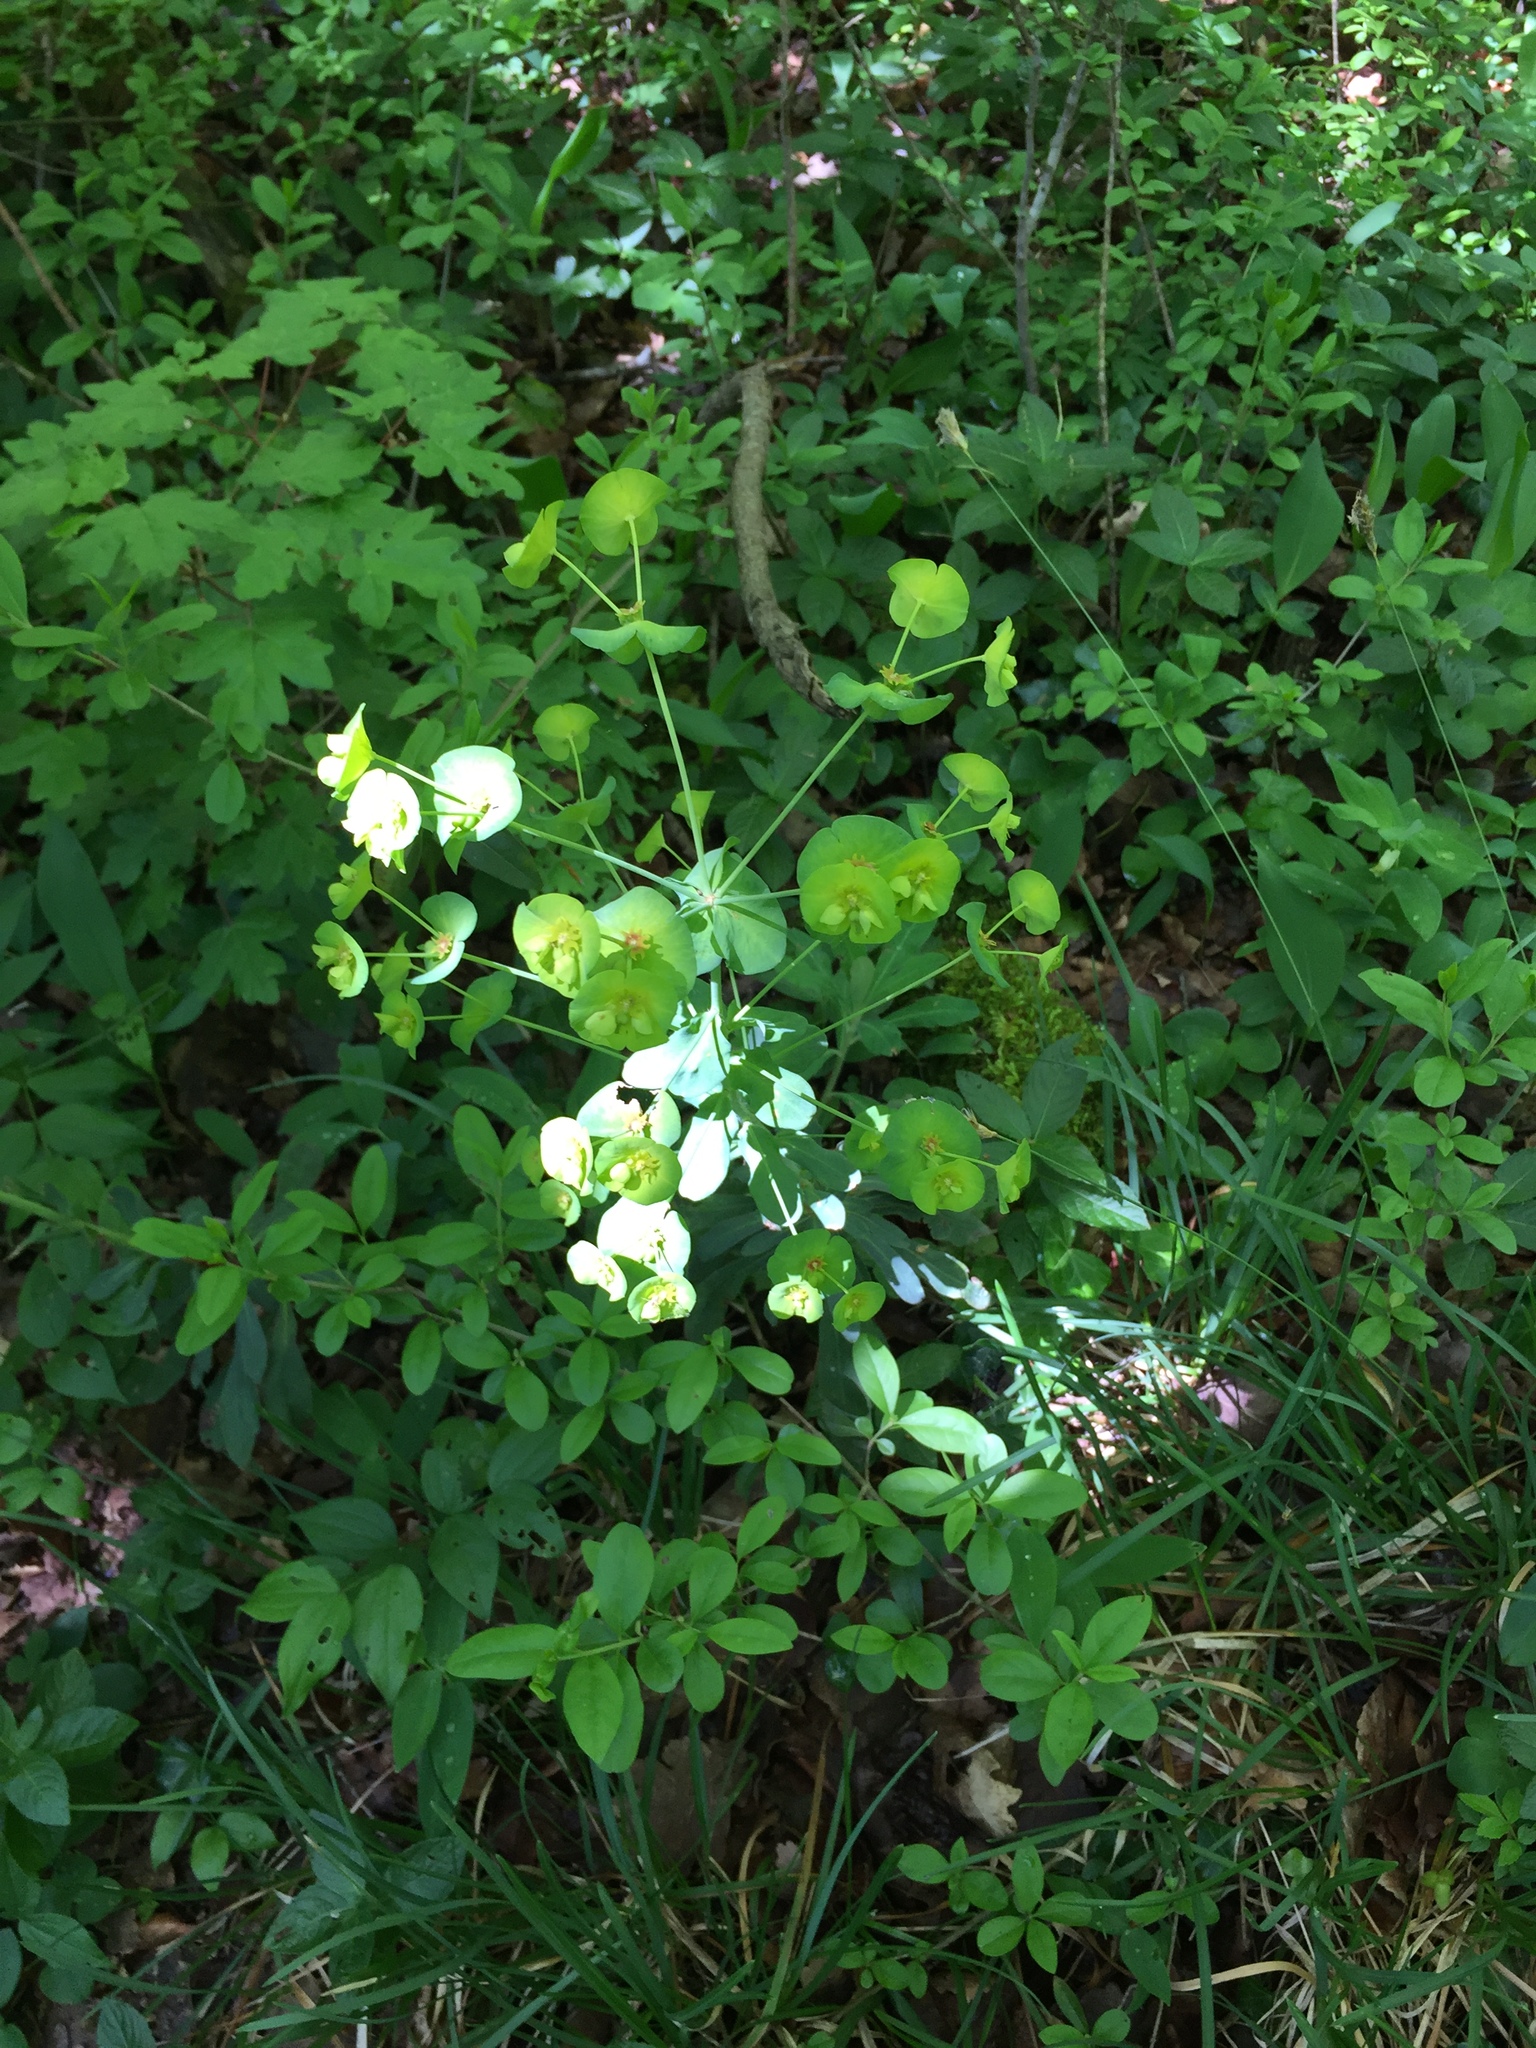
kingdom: Plantae
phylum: Tracheophyta
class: Magnoliopsida
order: Malpighiales
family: Euphorbiaceae
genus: Euphorbia
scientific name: Euphorbia amygdaloides
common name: Wood spurge
